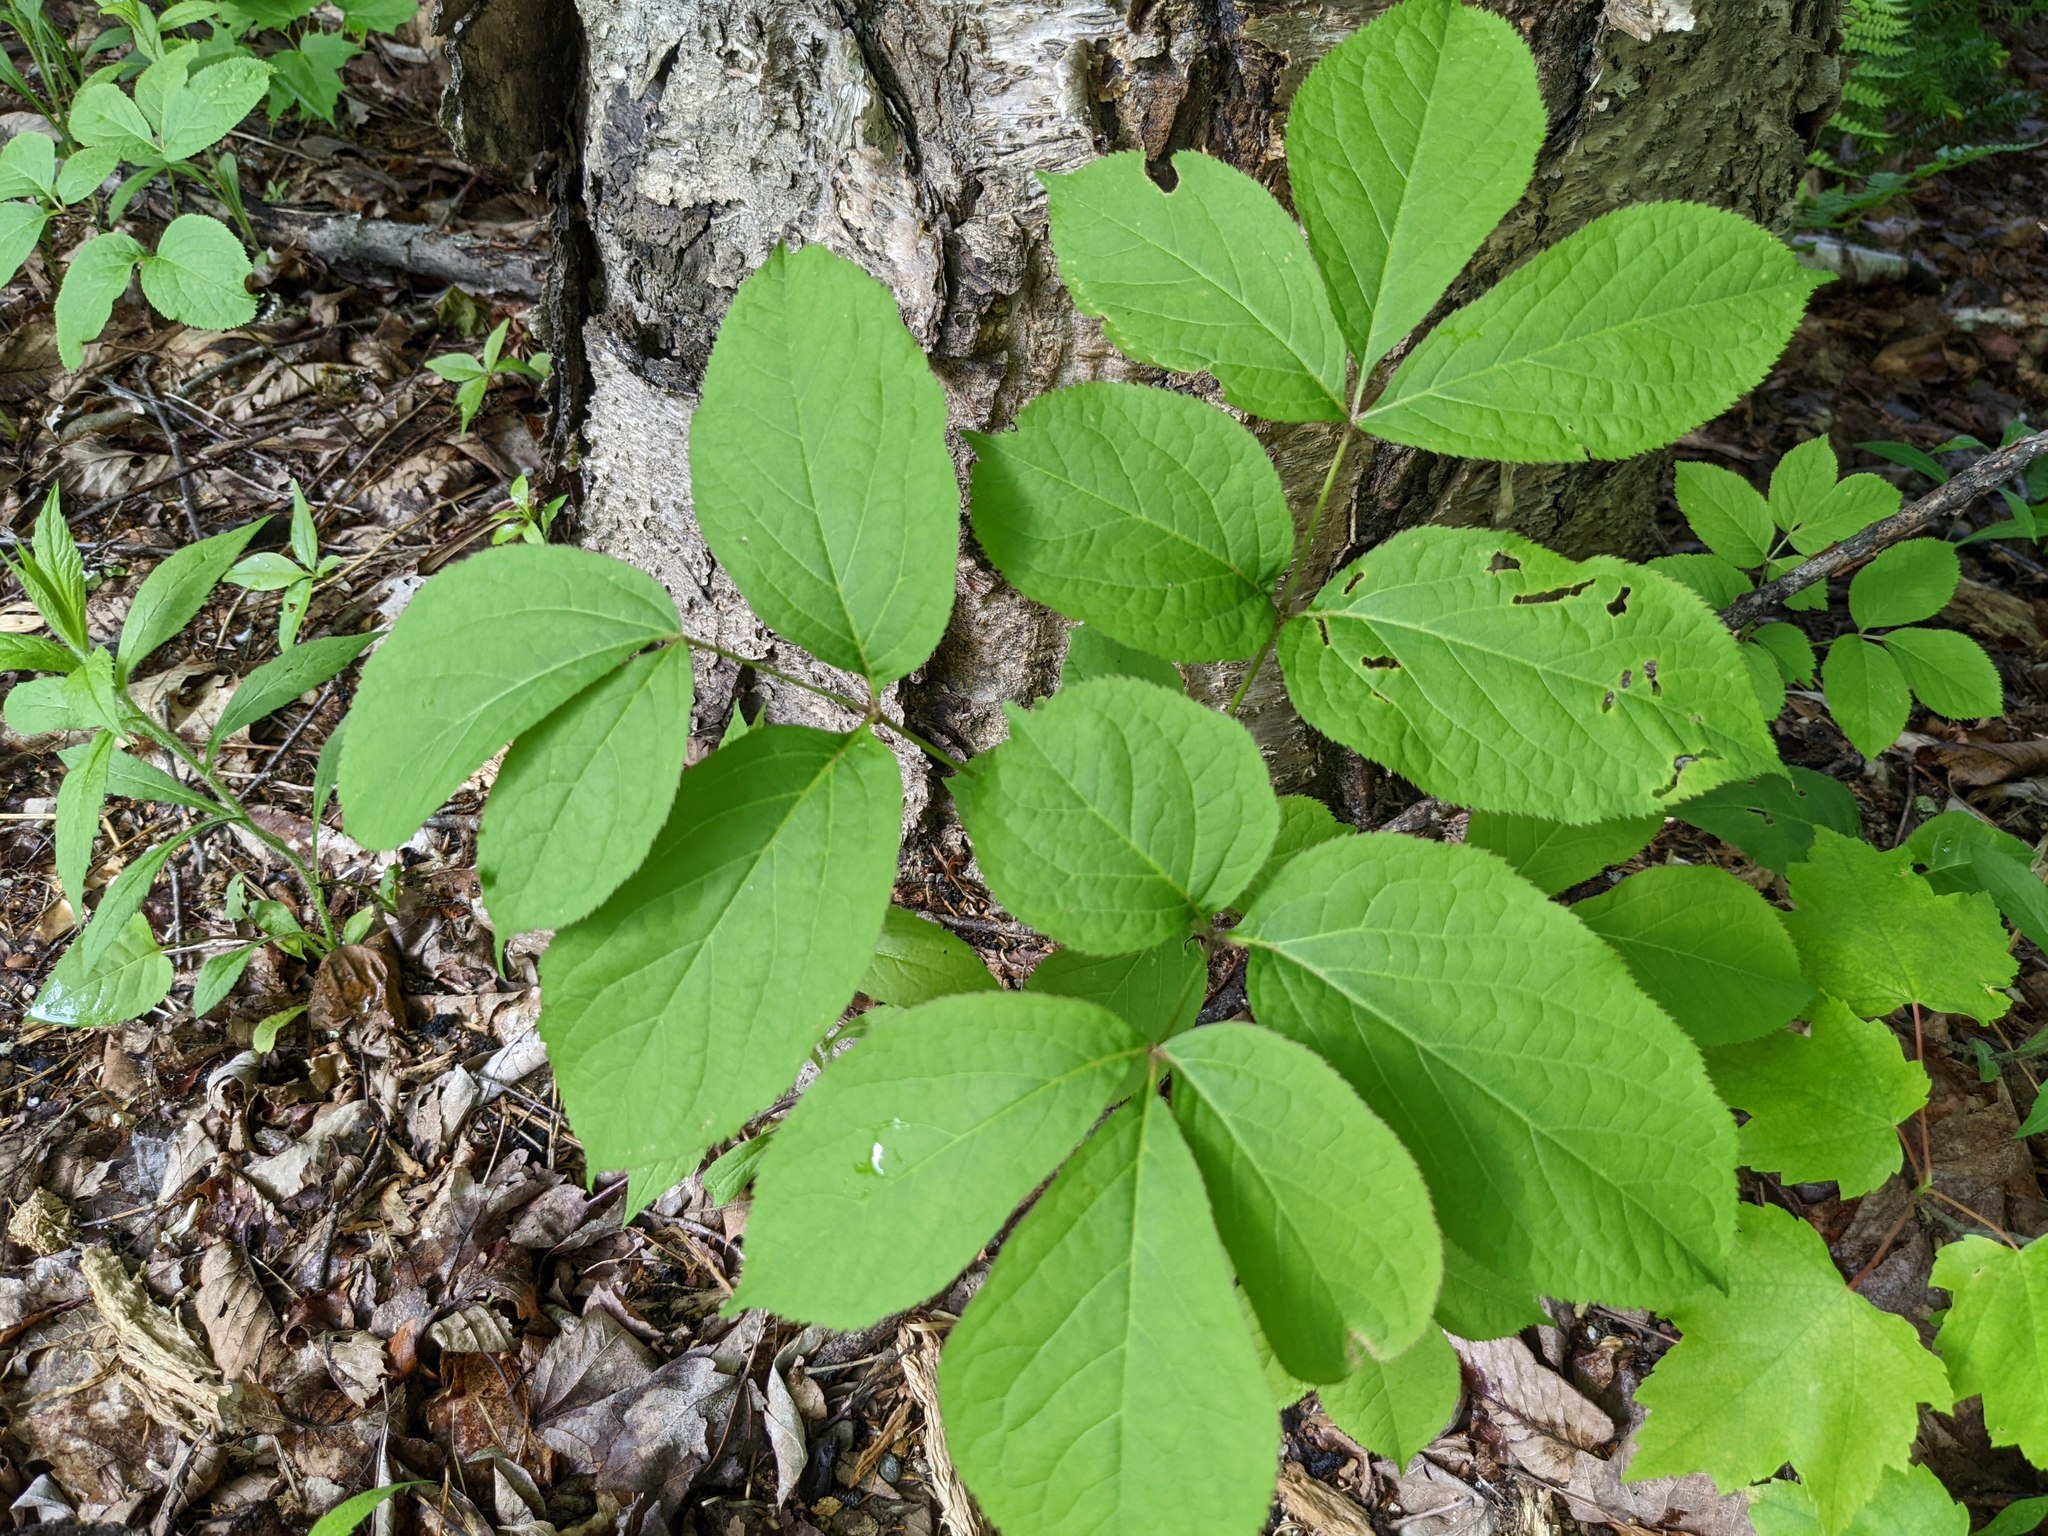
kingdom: Plantae
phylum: Tracheophyta
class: Magnoliopsida
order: Apiales
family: Araliaceae
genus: Aralia
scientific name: Aralia nudicaulis
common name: Wild sarsaparilla
